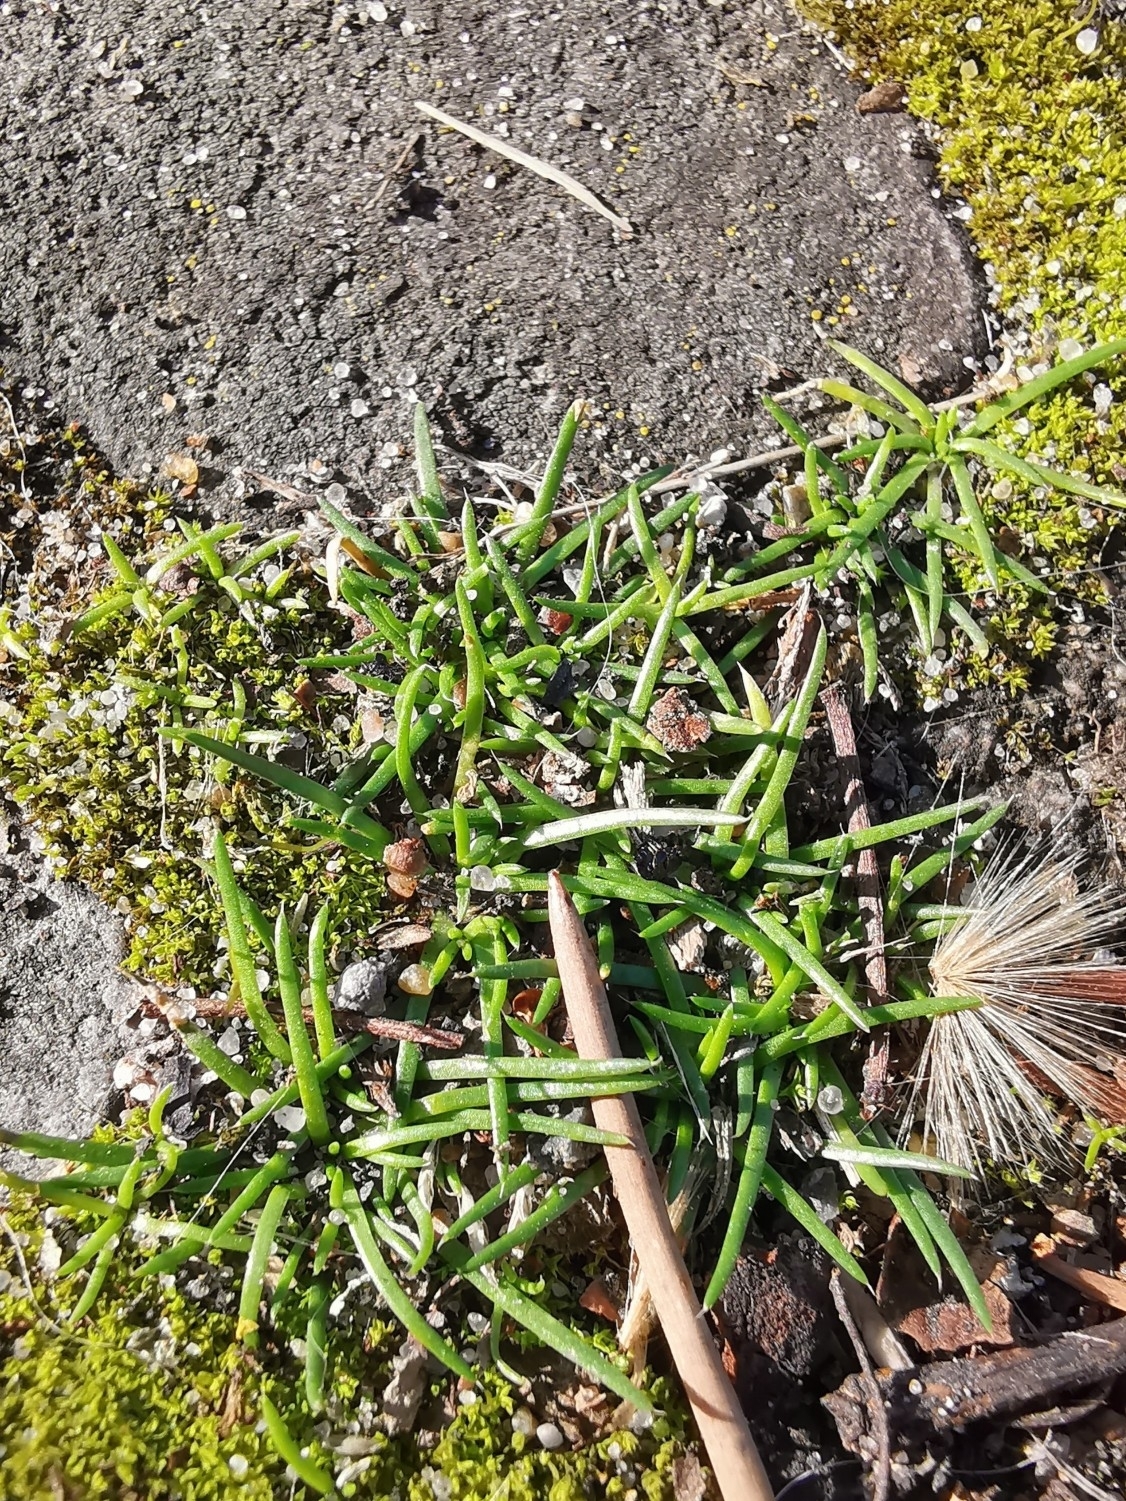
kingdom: Plantae
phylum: Tracheophyta
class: Magnoliopsida
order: Caryophyllales
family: Caryophyllaceae
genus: Sagina
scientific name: Sagina procumbens
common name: Procumbent pearlwort
